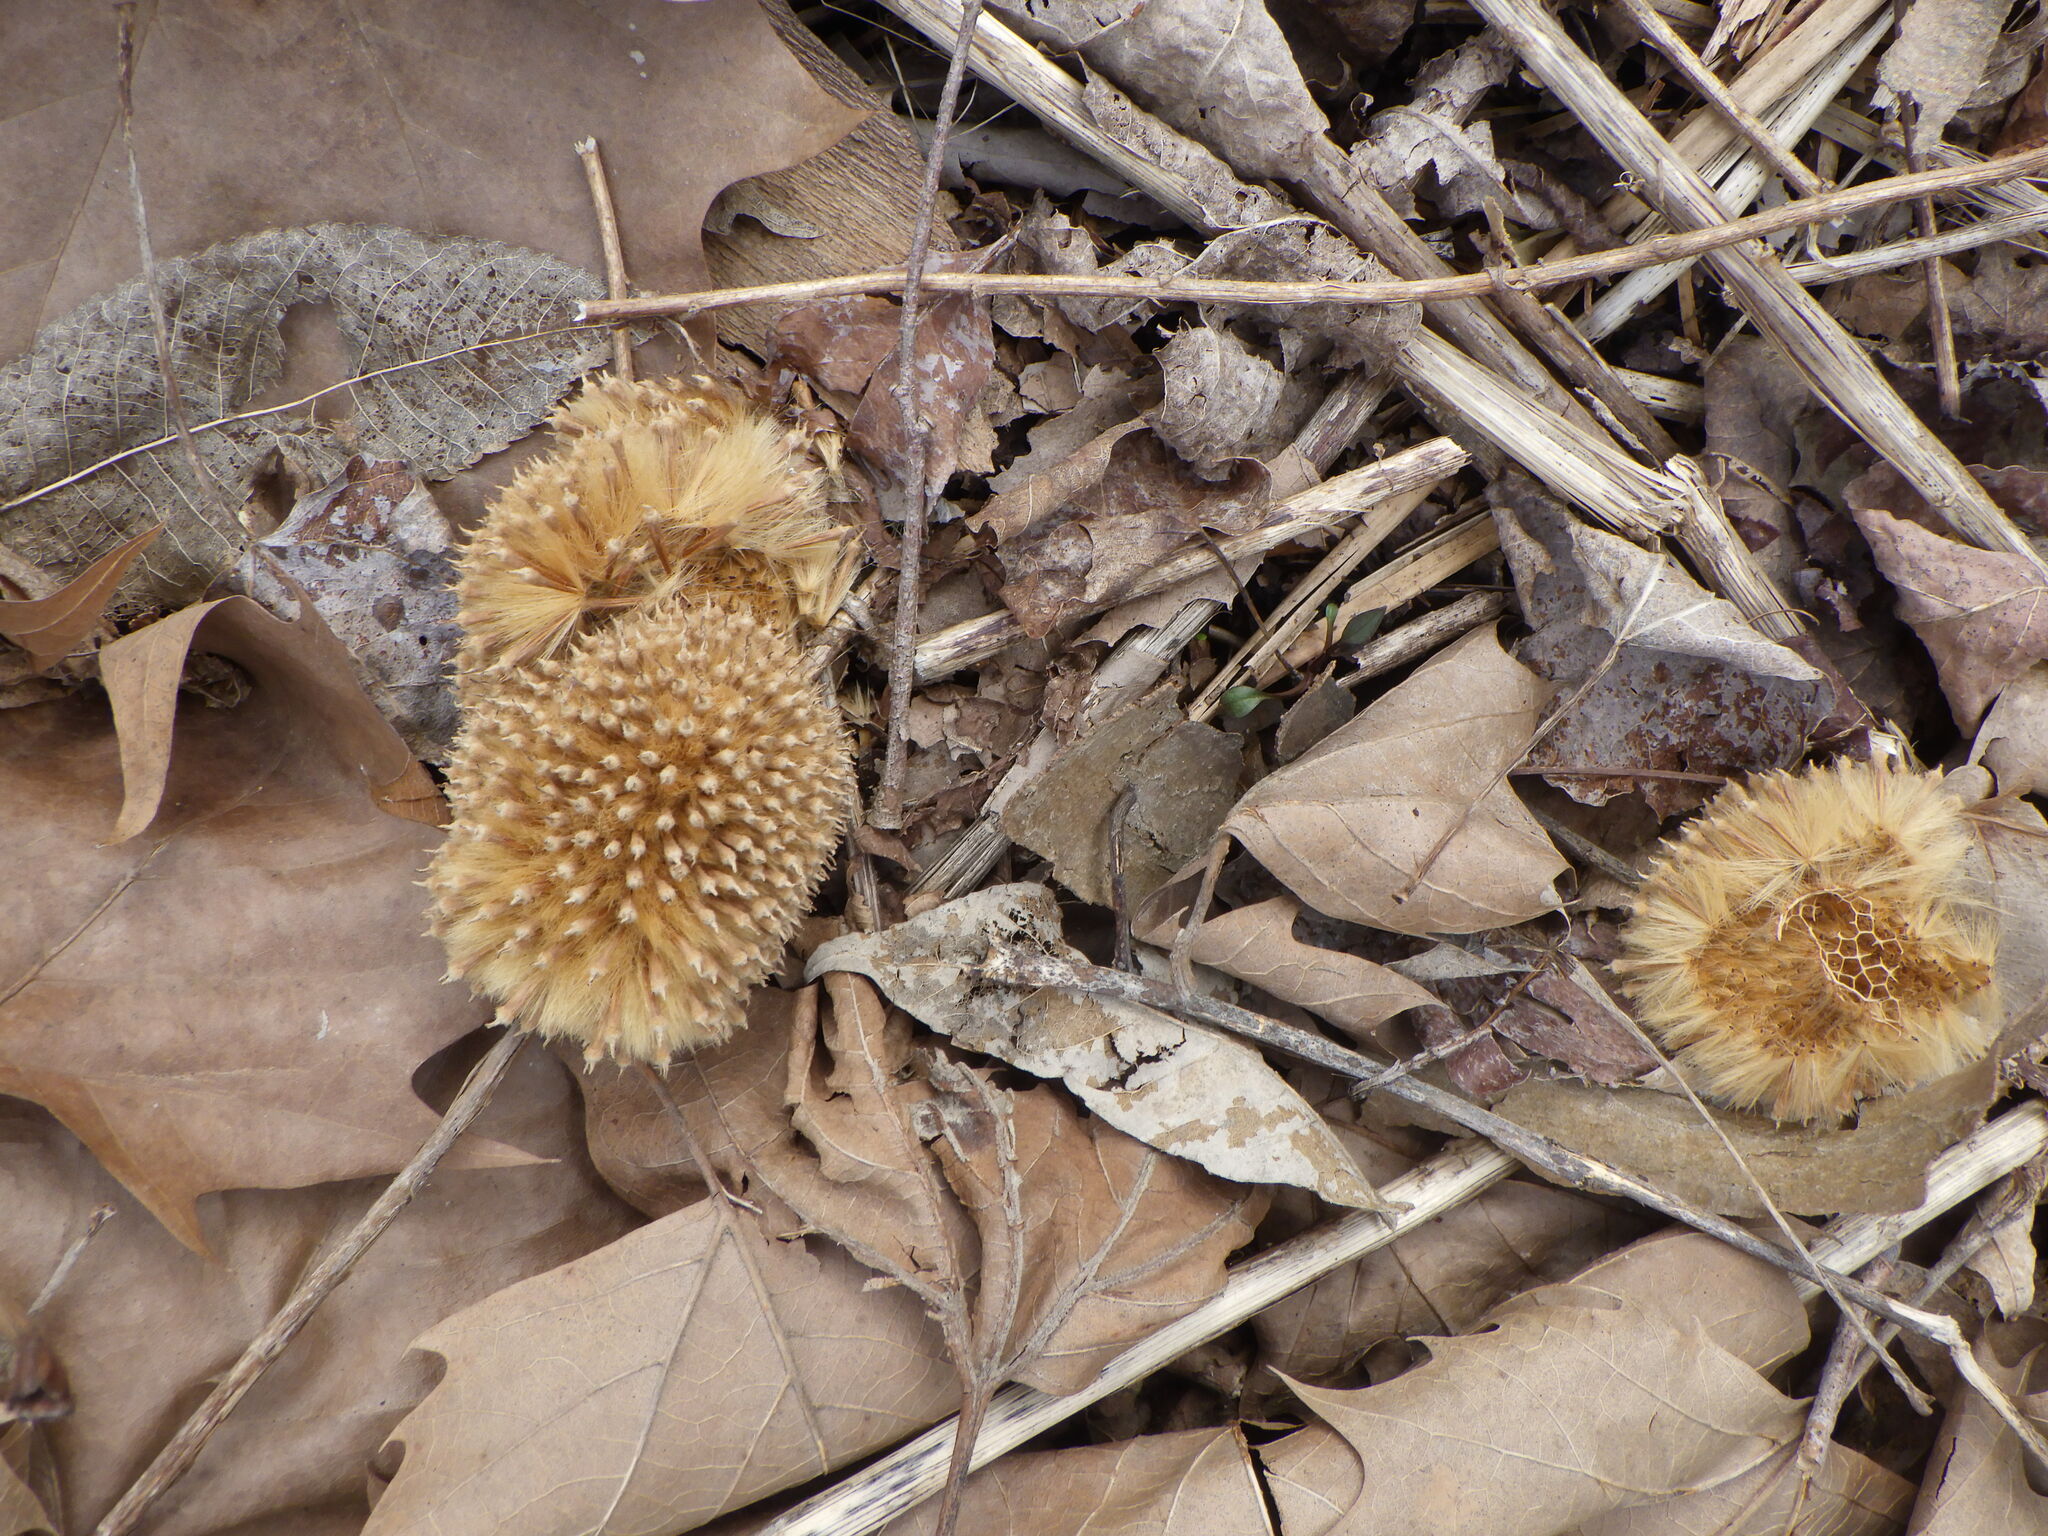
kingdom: Plantae
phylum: Tracheophyta
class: Magnoliopsida
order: Proteales
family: Platanaceae
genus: Platanus
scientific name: Platanus occidentalis
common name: American sycamore
